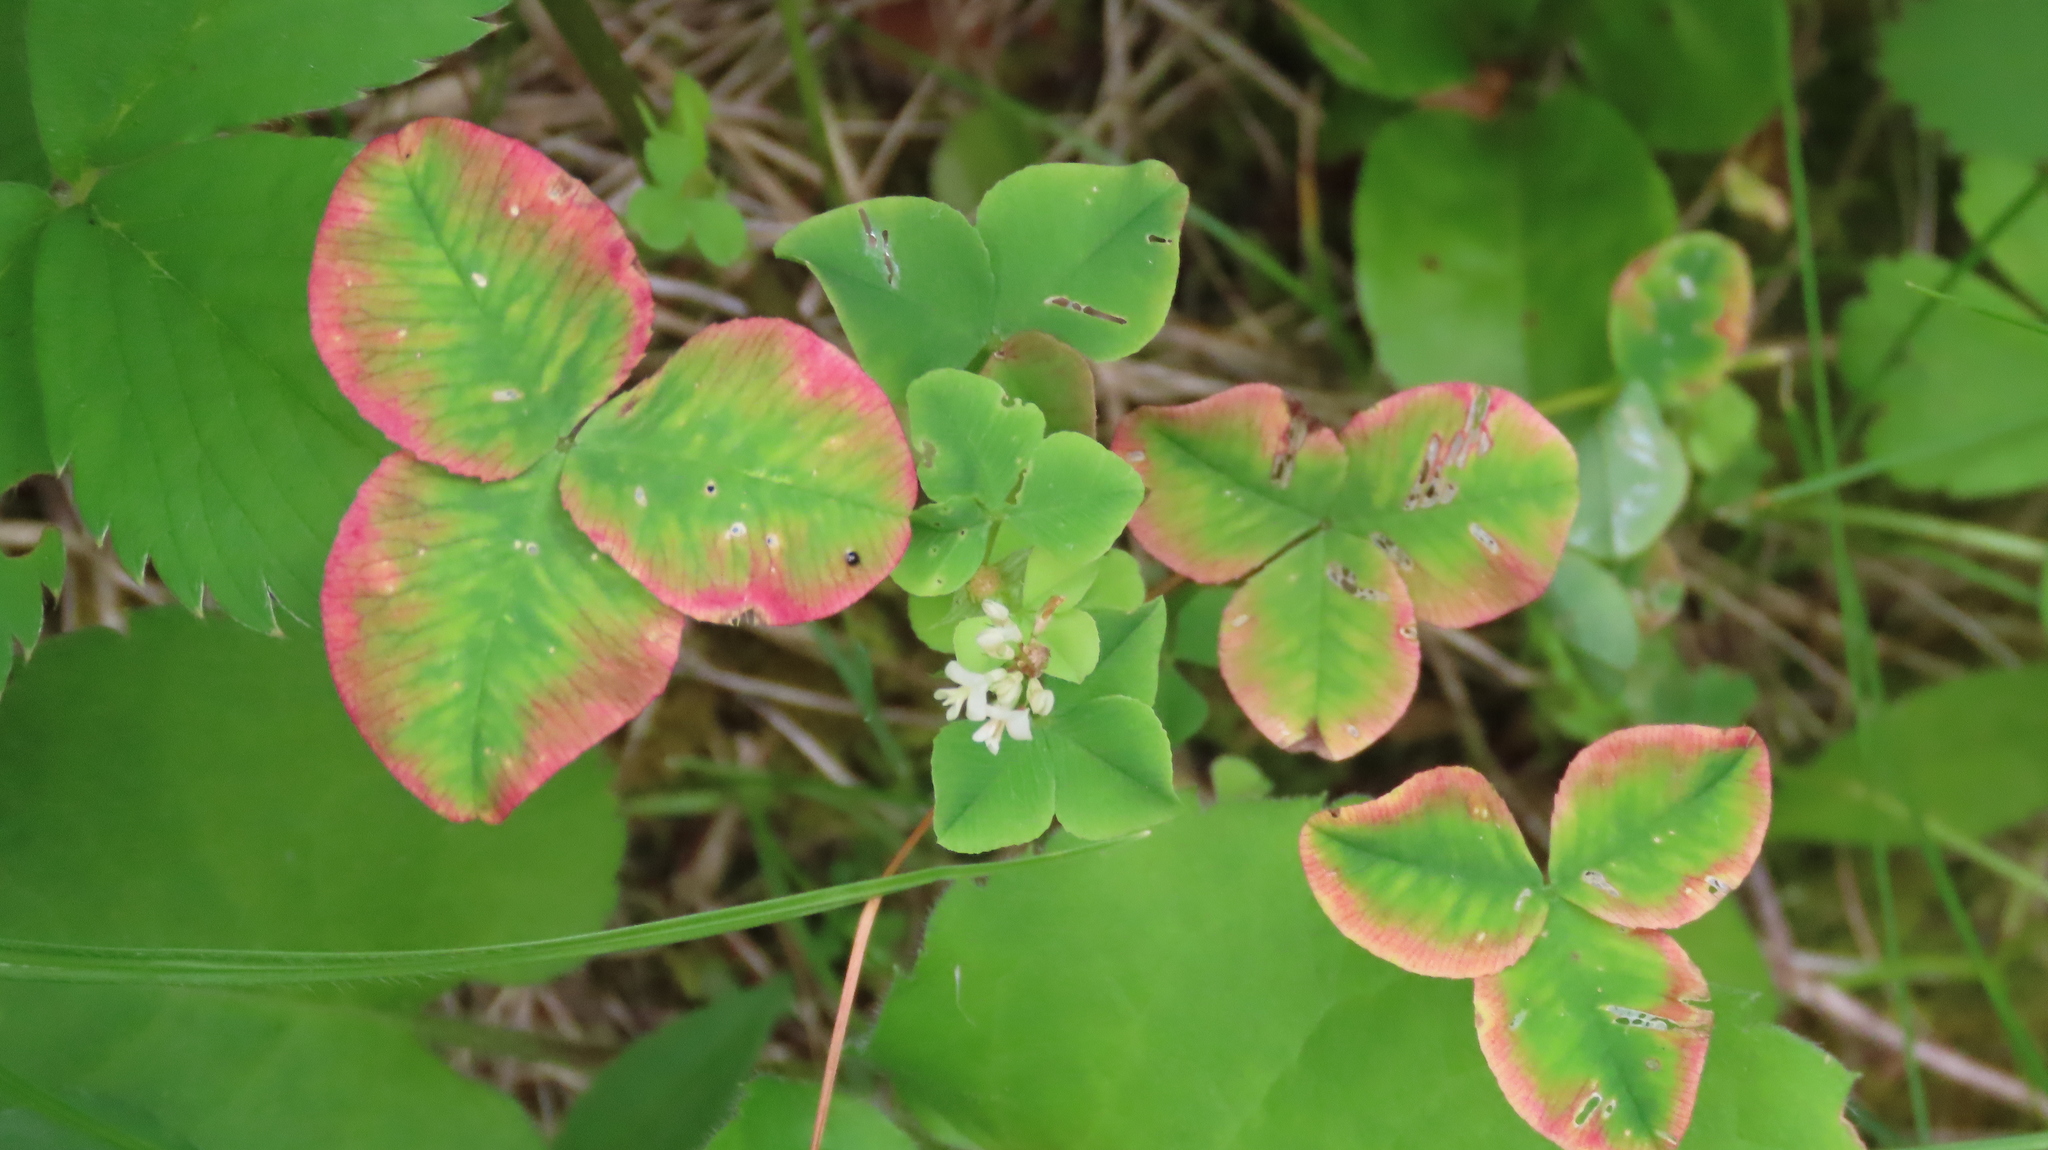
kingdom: Plantae
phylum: Tracheophyta
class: Magnoliopsida
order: Fabales
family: Fabaceae
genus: Trifolium
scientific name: Trifolium repens
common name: White clover
